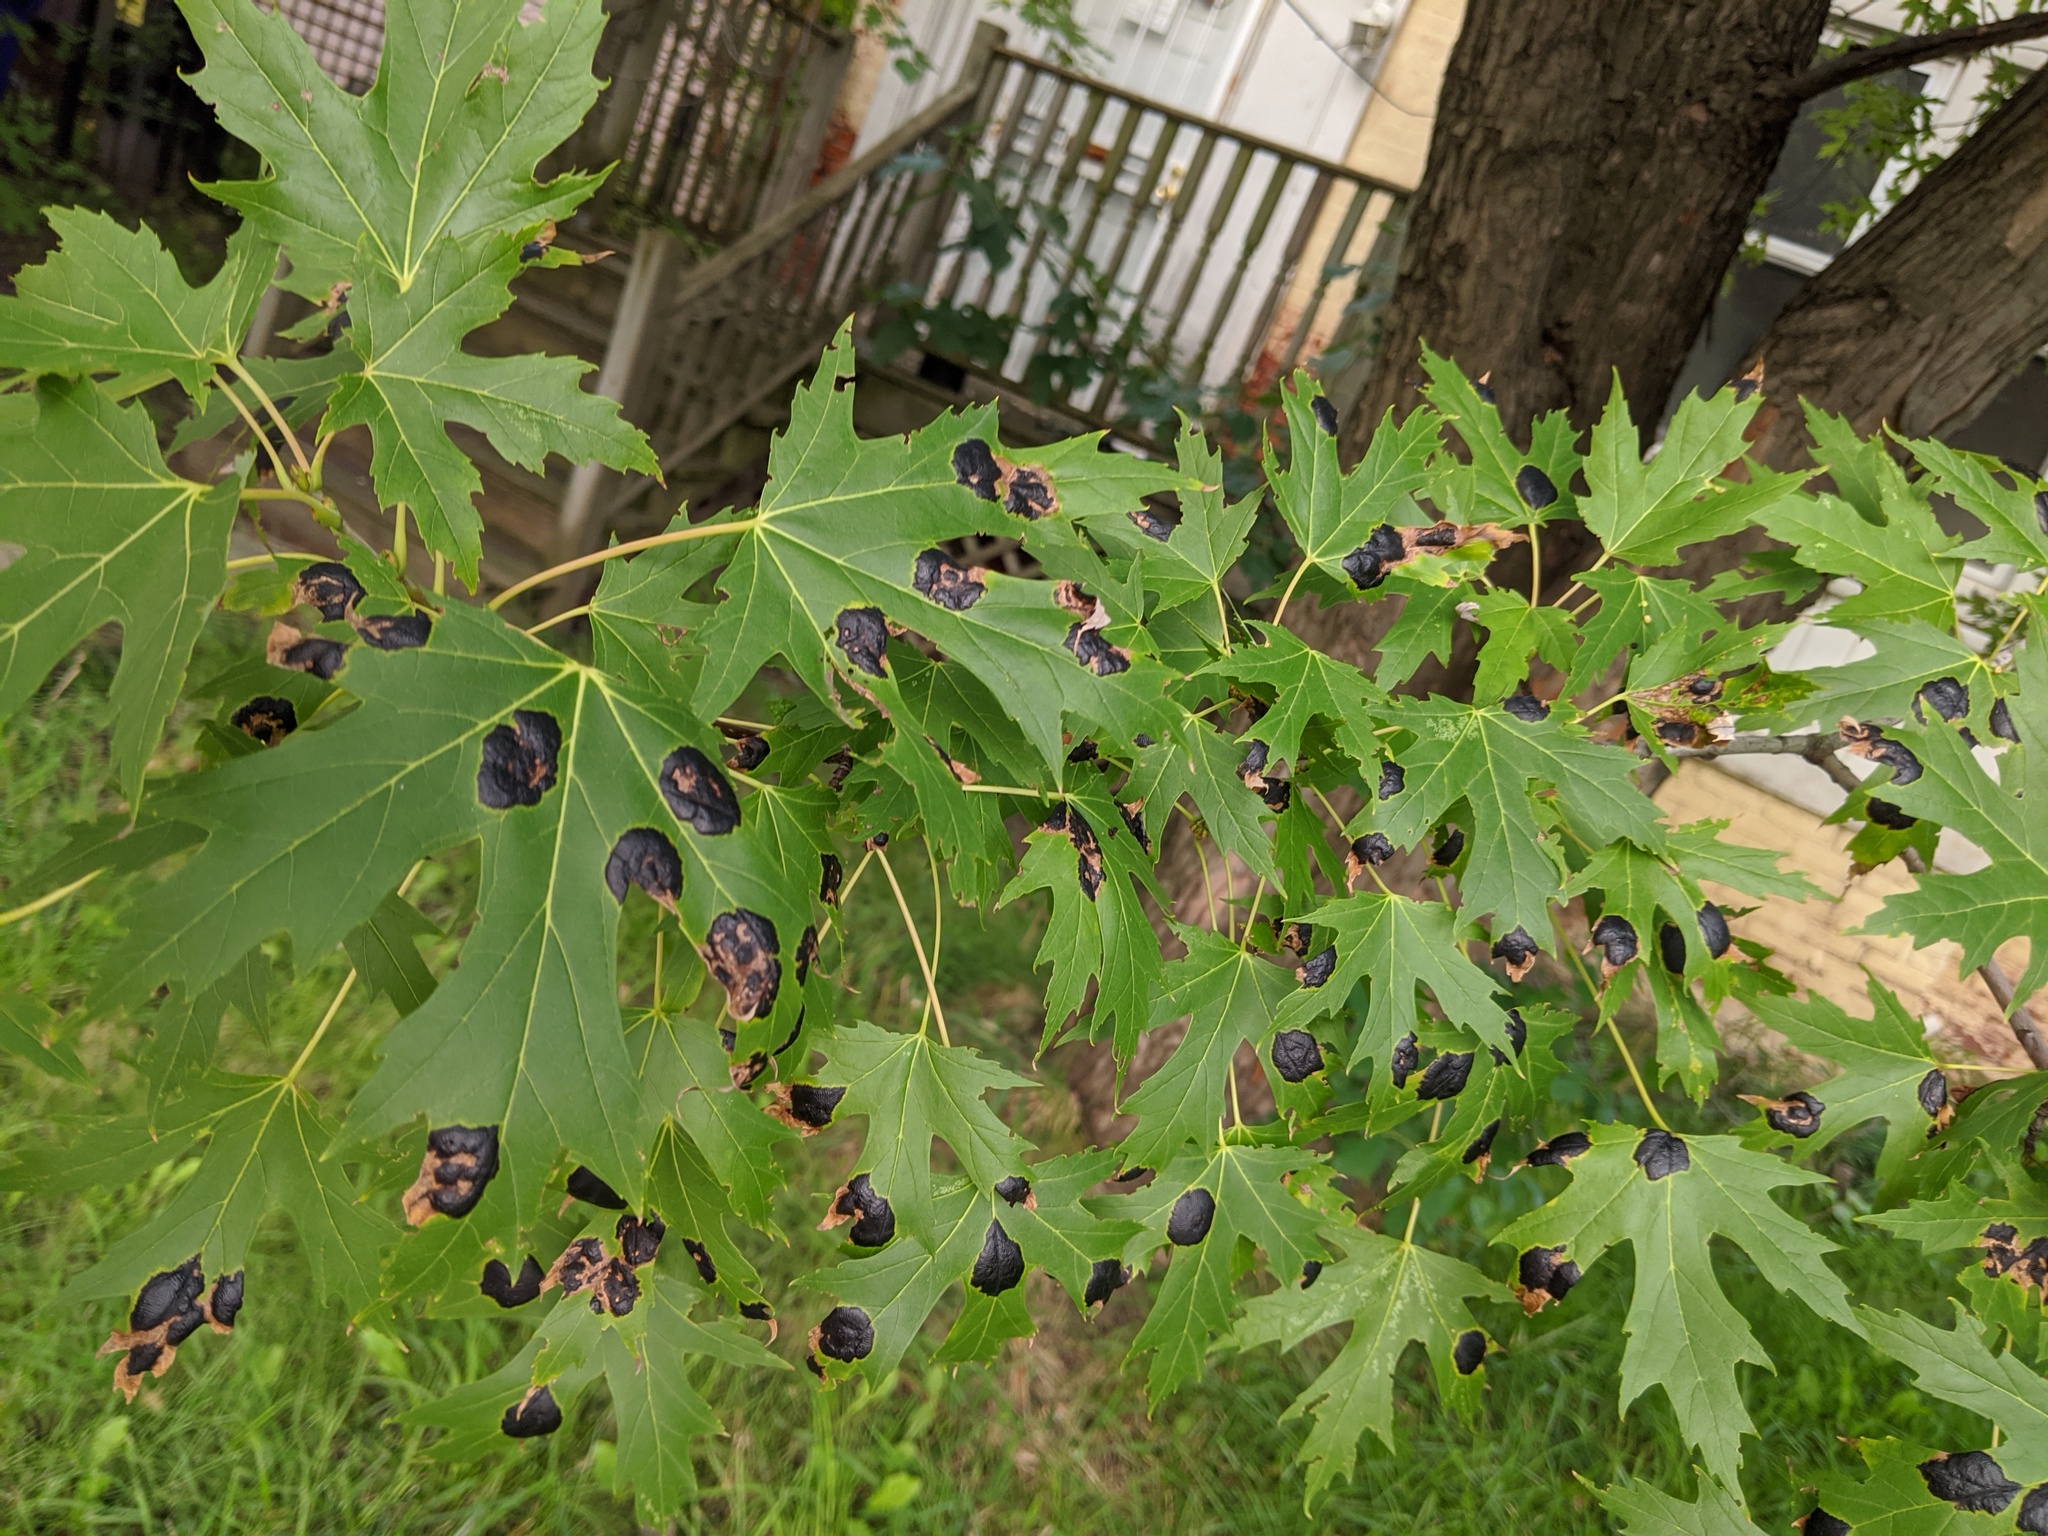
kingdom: Fungi
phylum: Ascomycota
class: Leotiomycetes
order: Rhytismatales
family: Rhytismataceae
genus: Rhytisma
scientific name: Rhytisma americanum
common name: American tar spot
